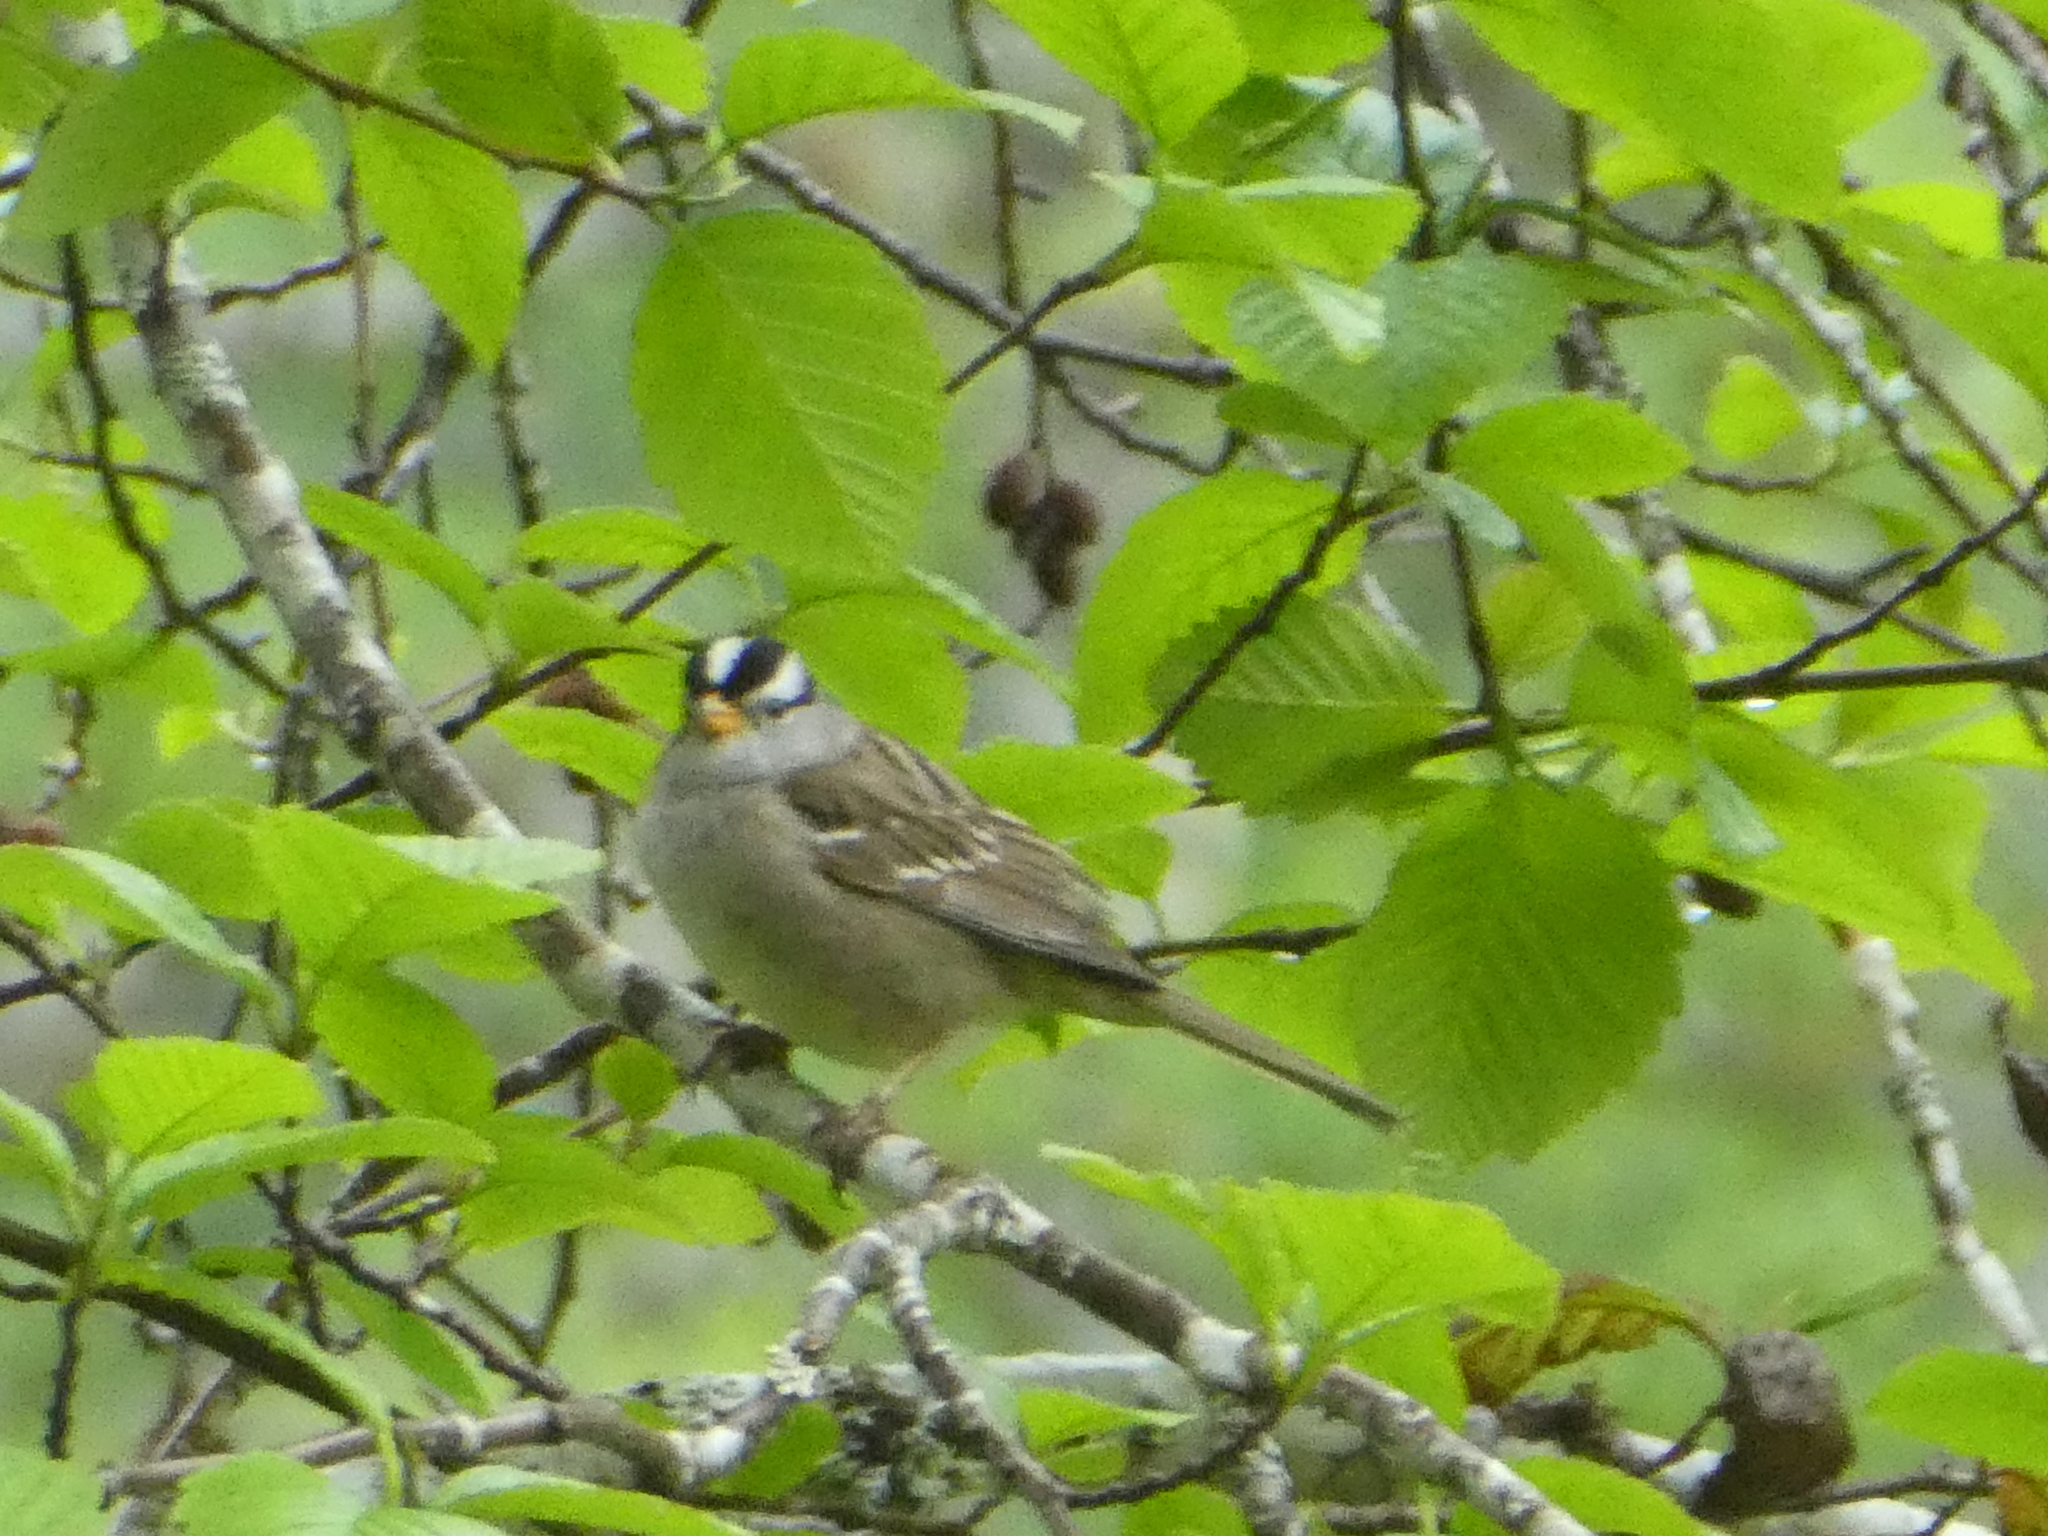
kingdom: Animalia
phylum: Chordata
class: Aves
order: Passeriformes
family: Passerellidae
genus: Zonotrichia
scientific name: Zonotrichia leucophrys
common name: White-crowned sparrow
